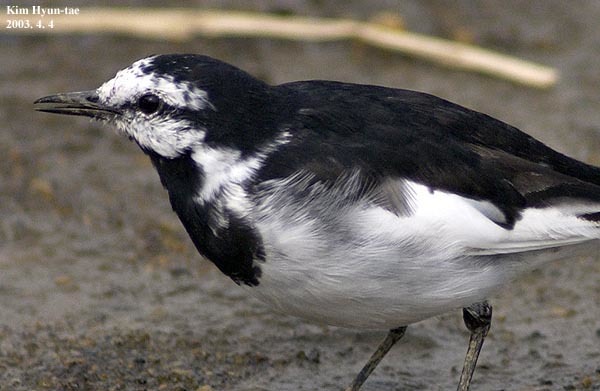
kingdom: Animalia
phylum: Chordata
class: Aves
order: Passeriformes
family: Motacillidae
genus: Motacilla
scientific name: Motacilla alba
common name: White wagtail
